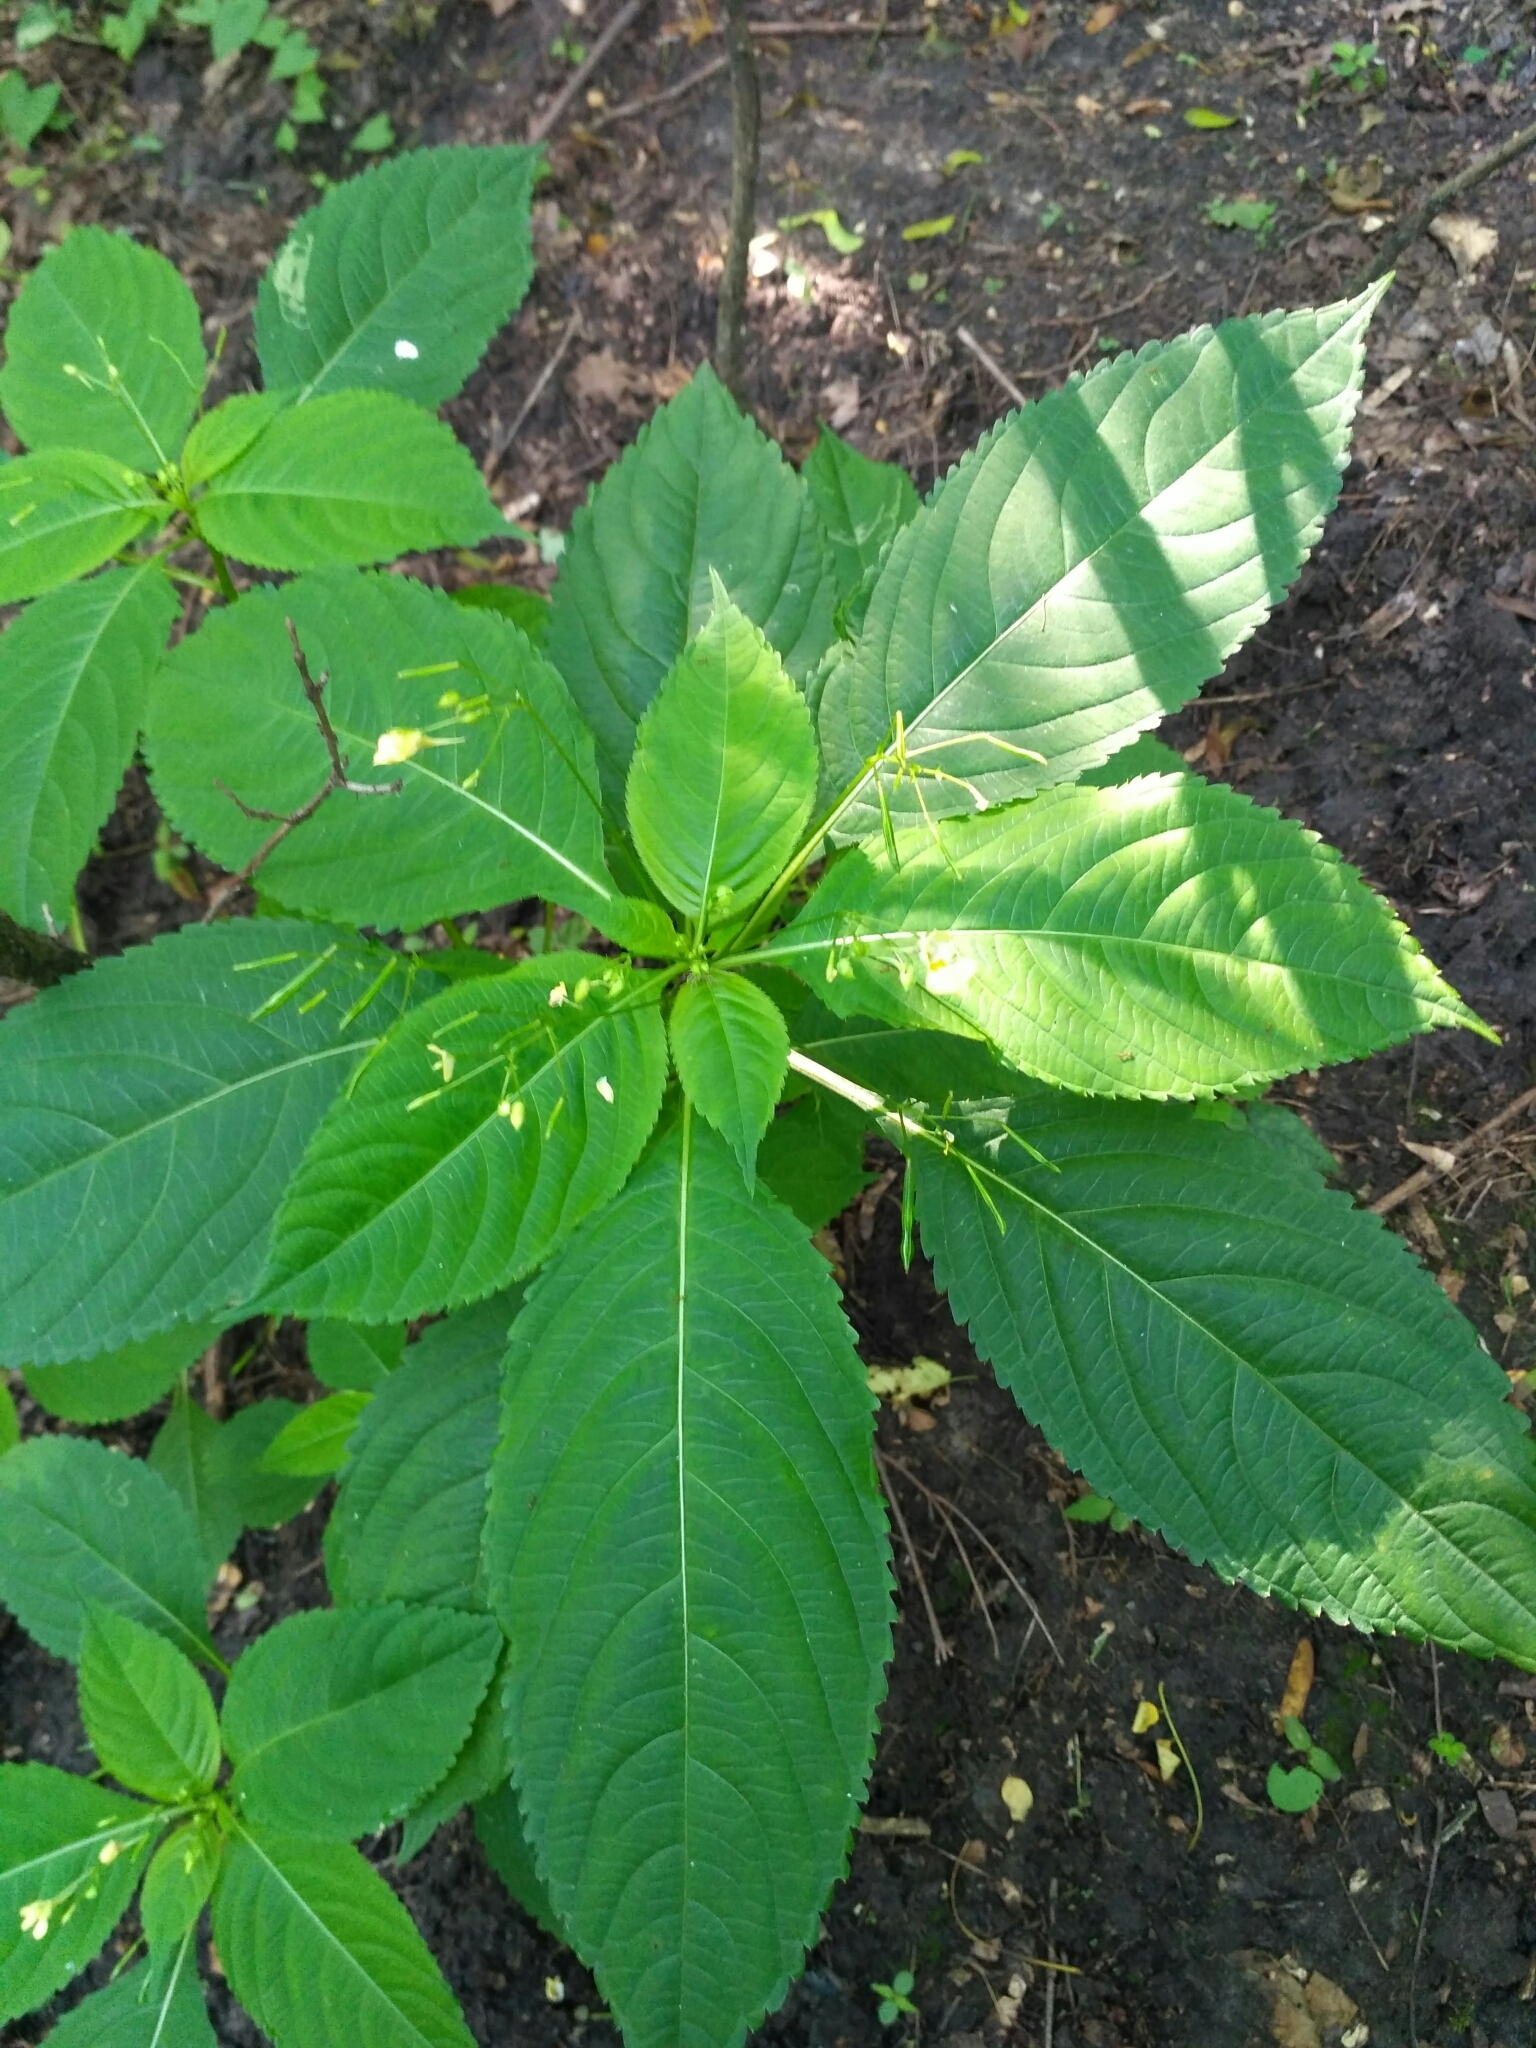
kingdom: Plantae
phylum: Tracheophyta
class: Magnoliopsida
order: Ericales
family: Balsaminaceae
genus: Impatiens
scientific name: Impatiens parviflora
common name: Small balsam
